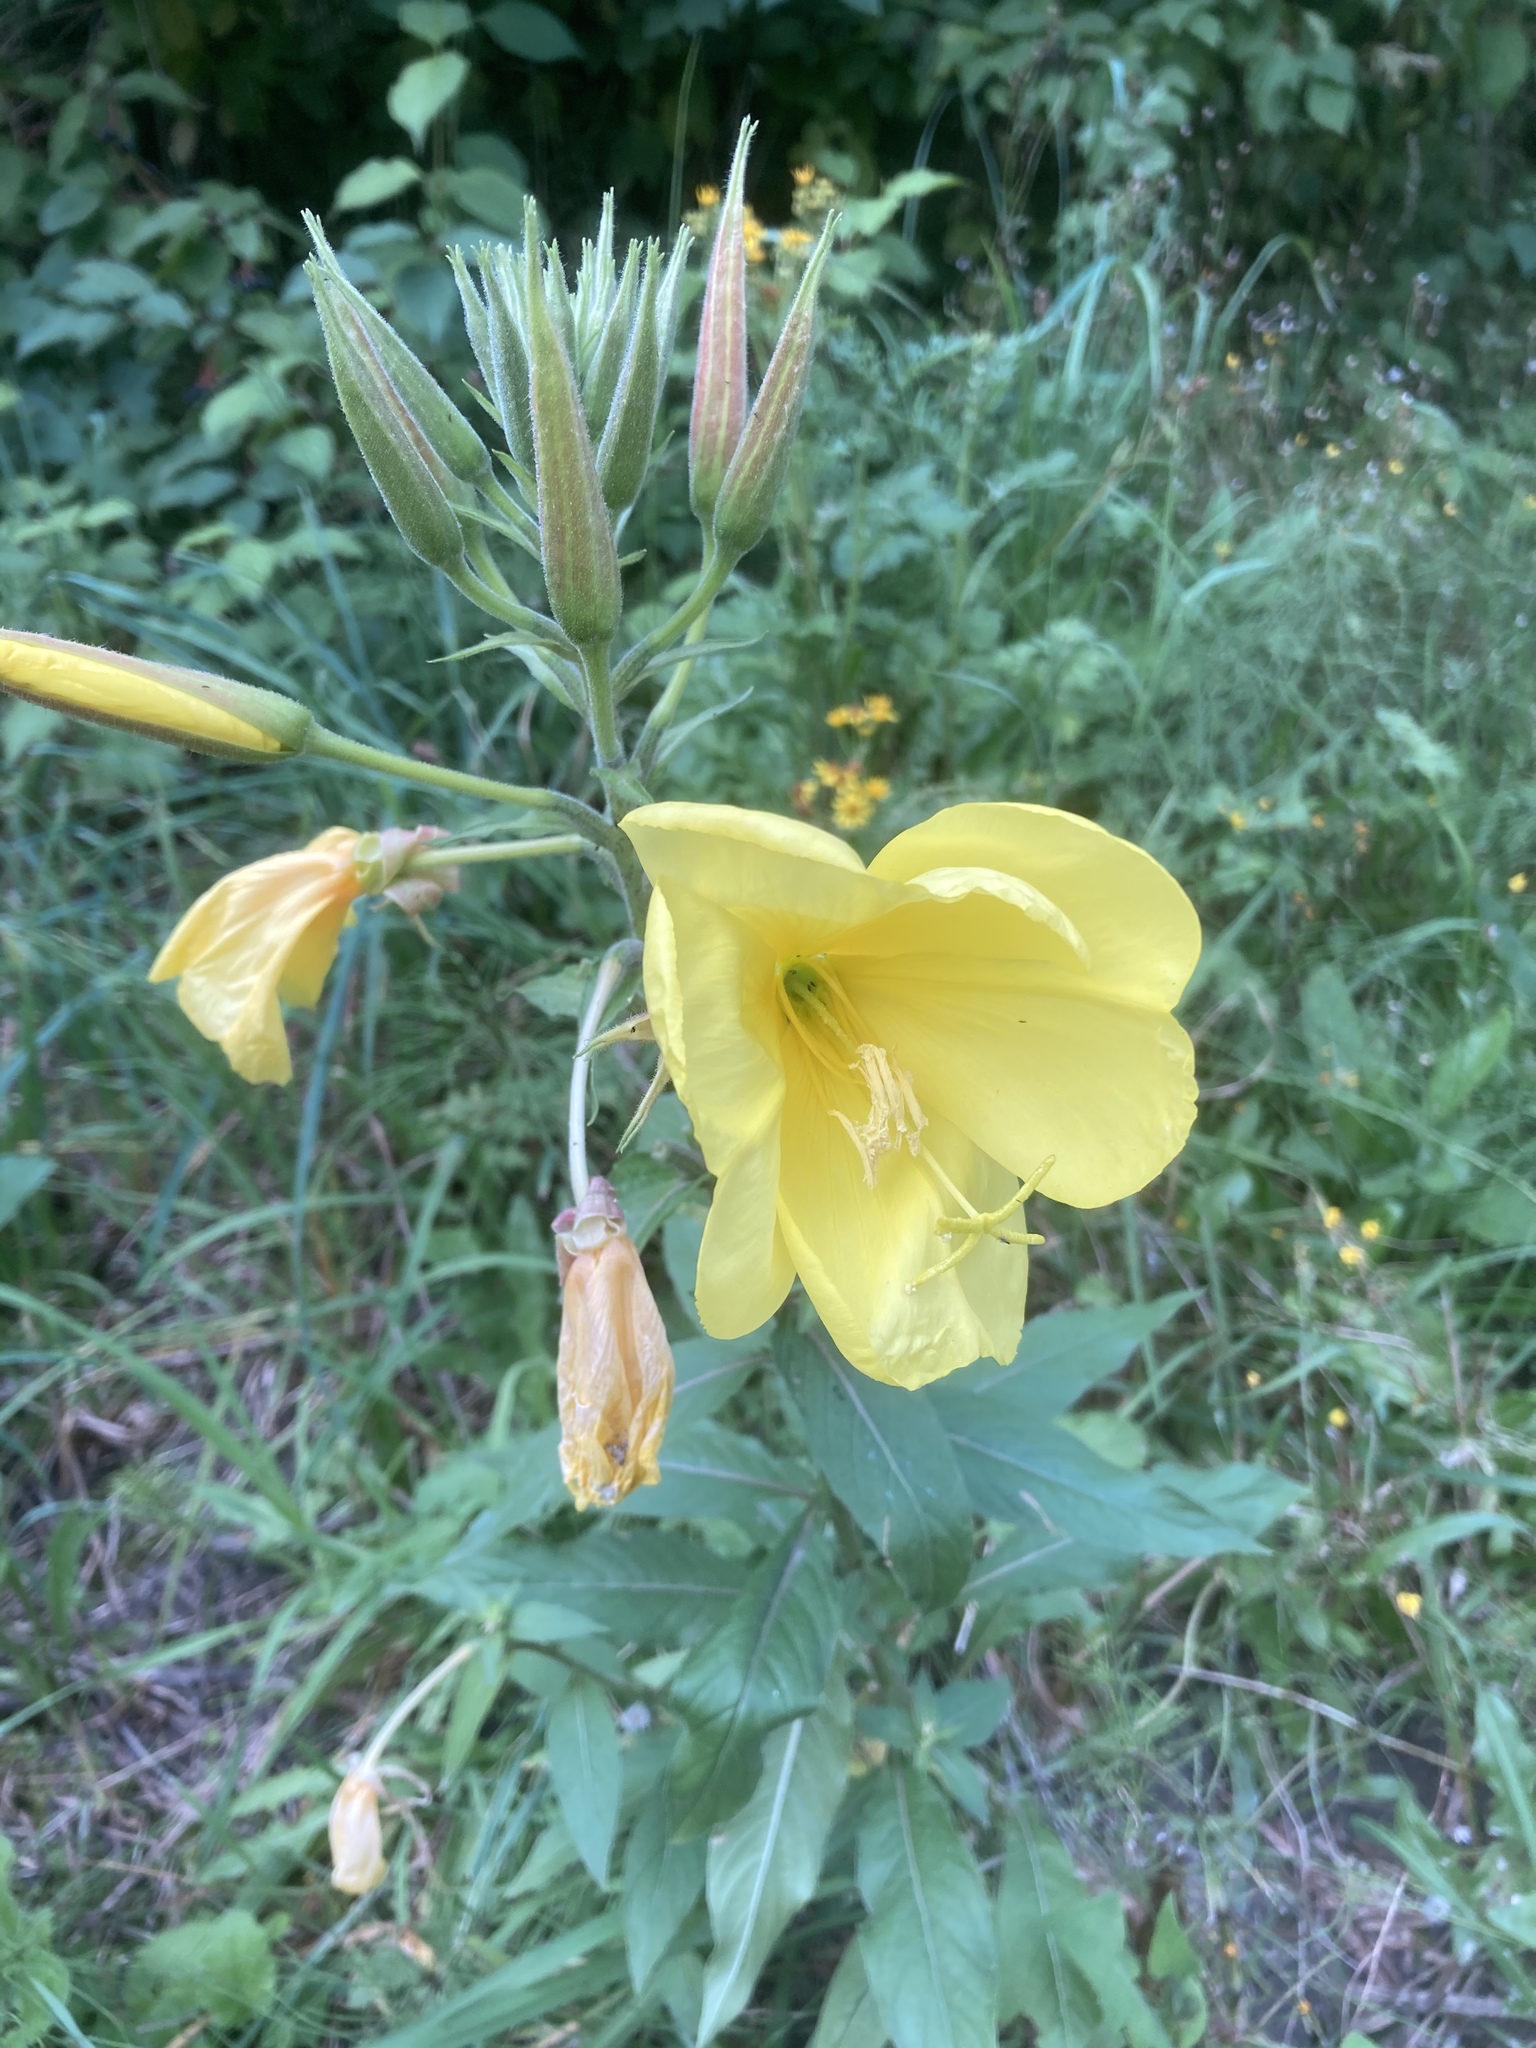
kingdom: Plantae
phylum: Tracheophyta
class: Magnoliopsida
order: Myrtales
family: Onagraceae
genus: Oenothera
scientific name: Oenothera glazioviana
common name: Large-flowered evening-primrose
